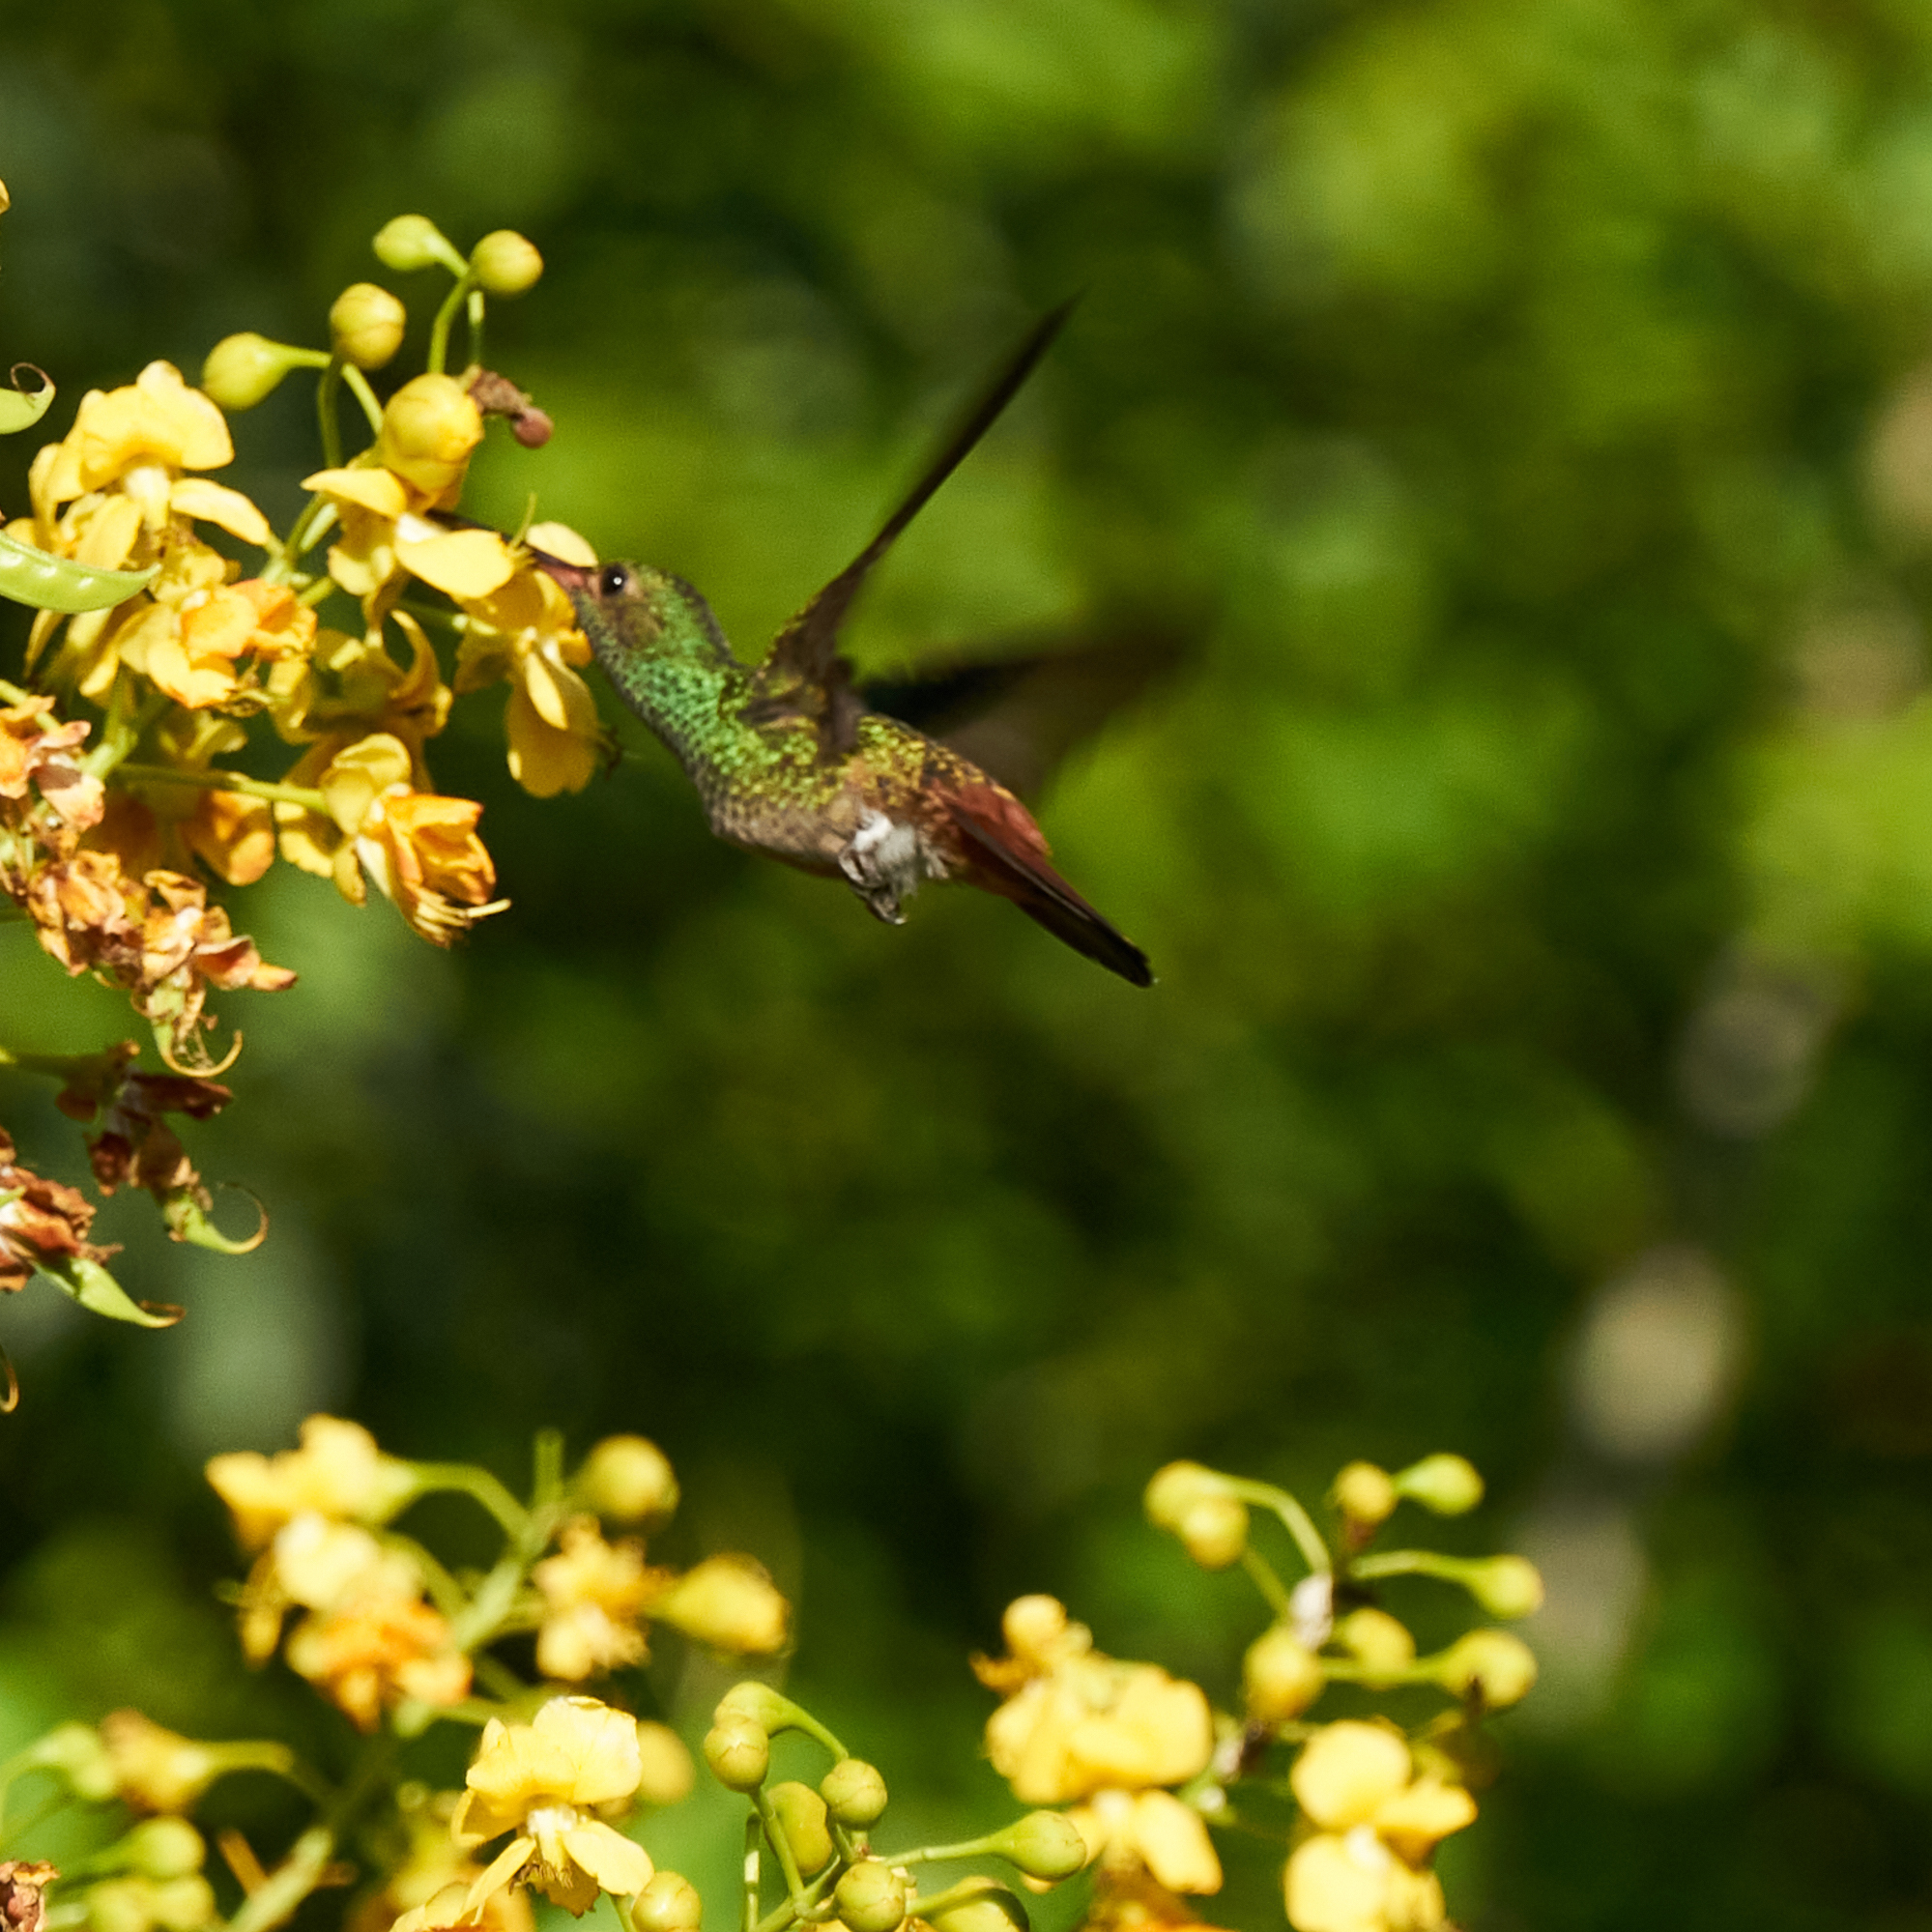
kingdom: Animalia
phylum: Chordata
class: Aves
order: Apodiformes
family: Trochilidae
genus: Amazilia
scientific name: Amazilia tzacatl
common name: Rufous-tailed hummingbird
